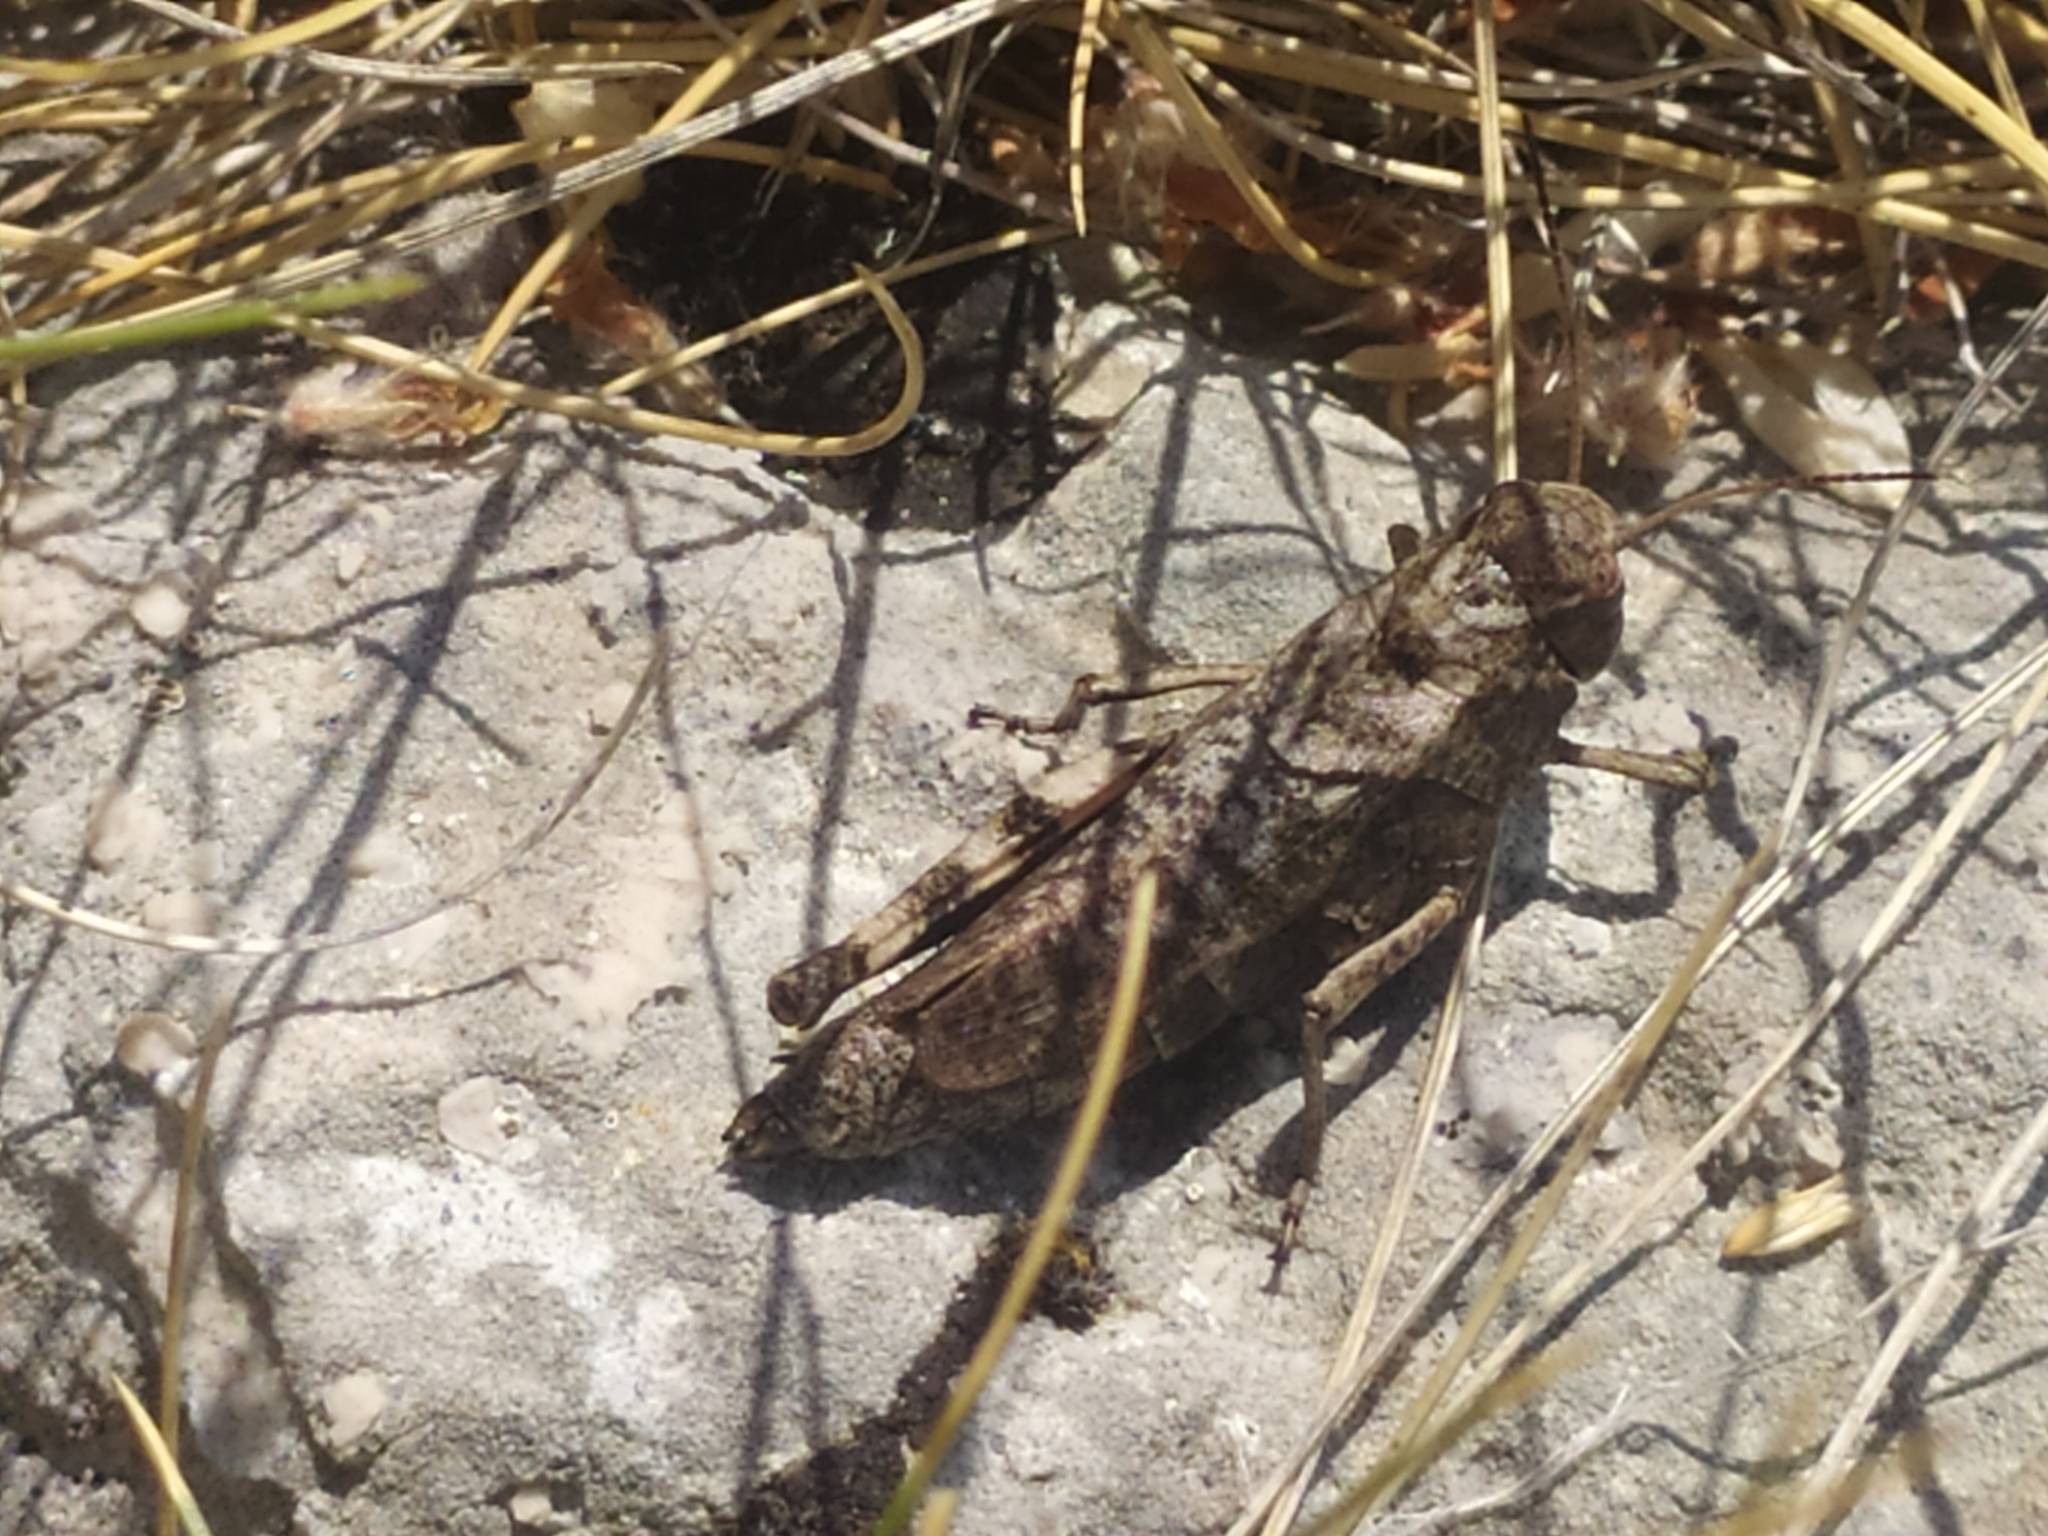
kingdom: Animalia
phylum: Arthropoda
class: Insecta
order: Orthoptera
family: Acrididae
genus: Psophus
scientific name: Psophus stridulus
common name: Rattle grasshopper
